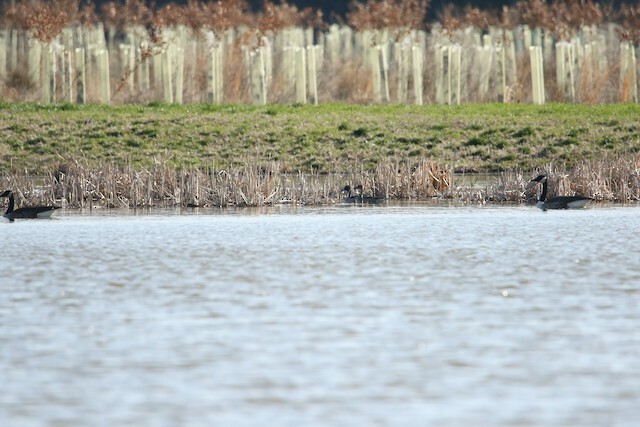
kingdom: Animalia
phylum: Chordata
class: Aves
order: Anseriformes
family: Anatidae
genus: Anas
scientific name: Anas acuta
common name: Northern pintail
